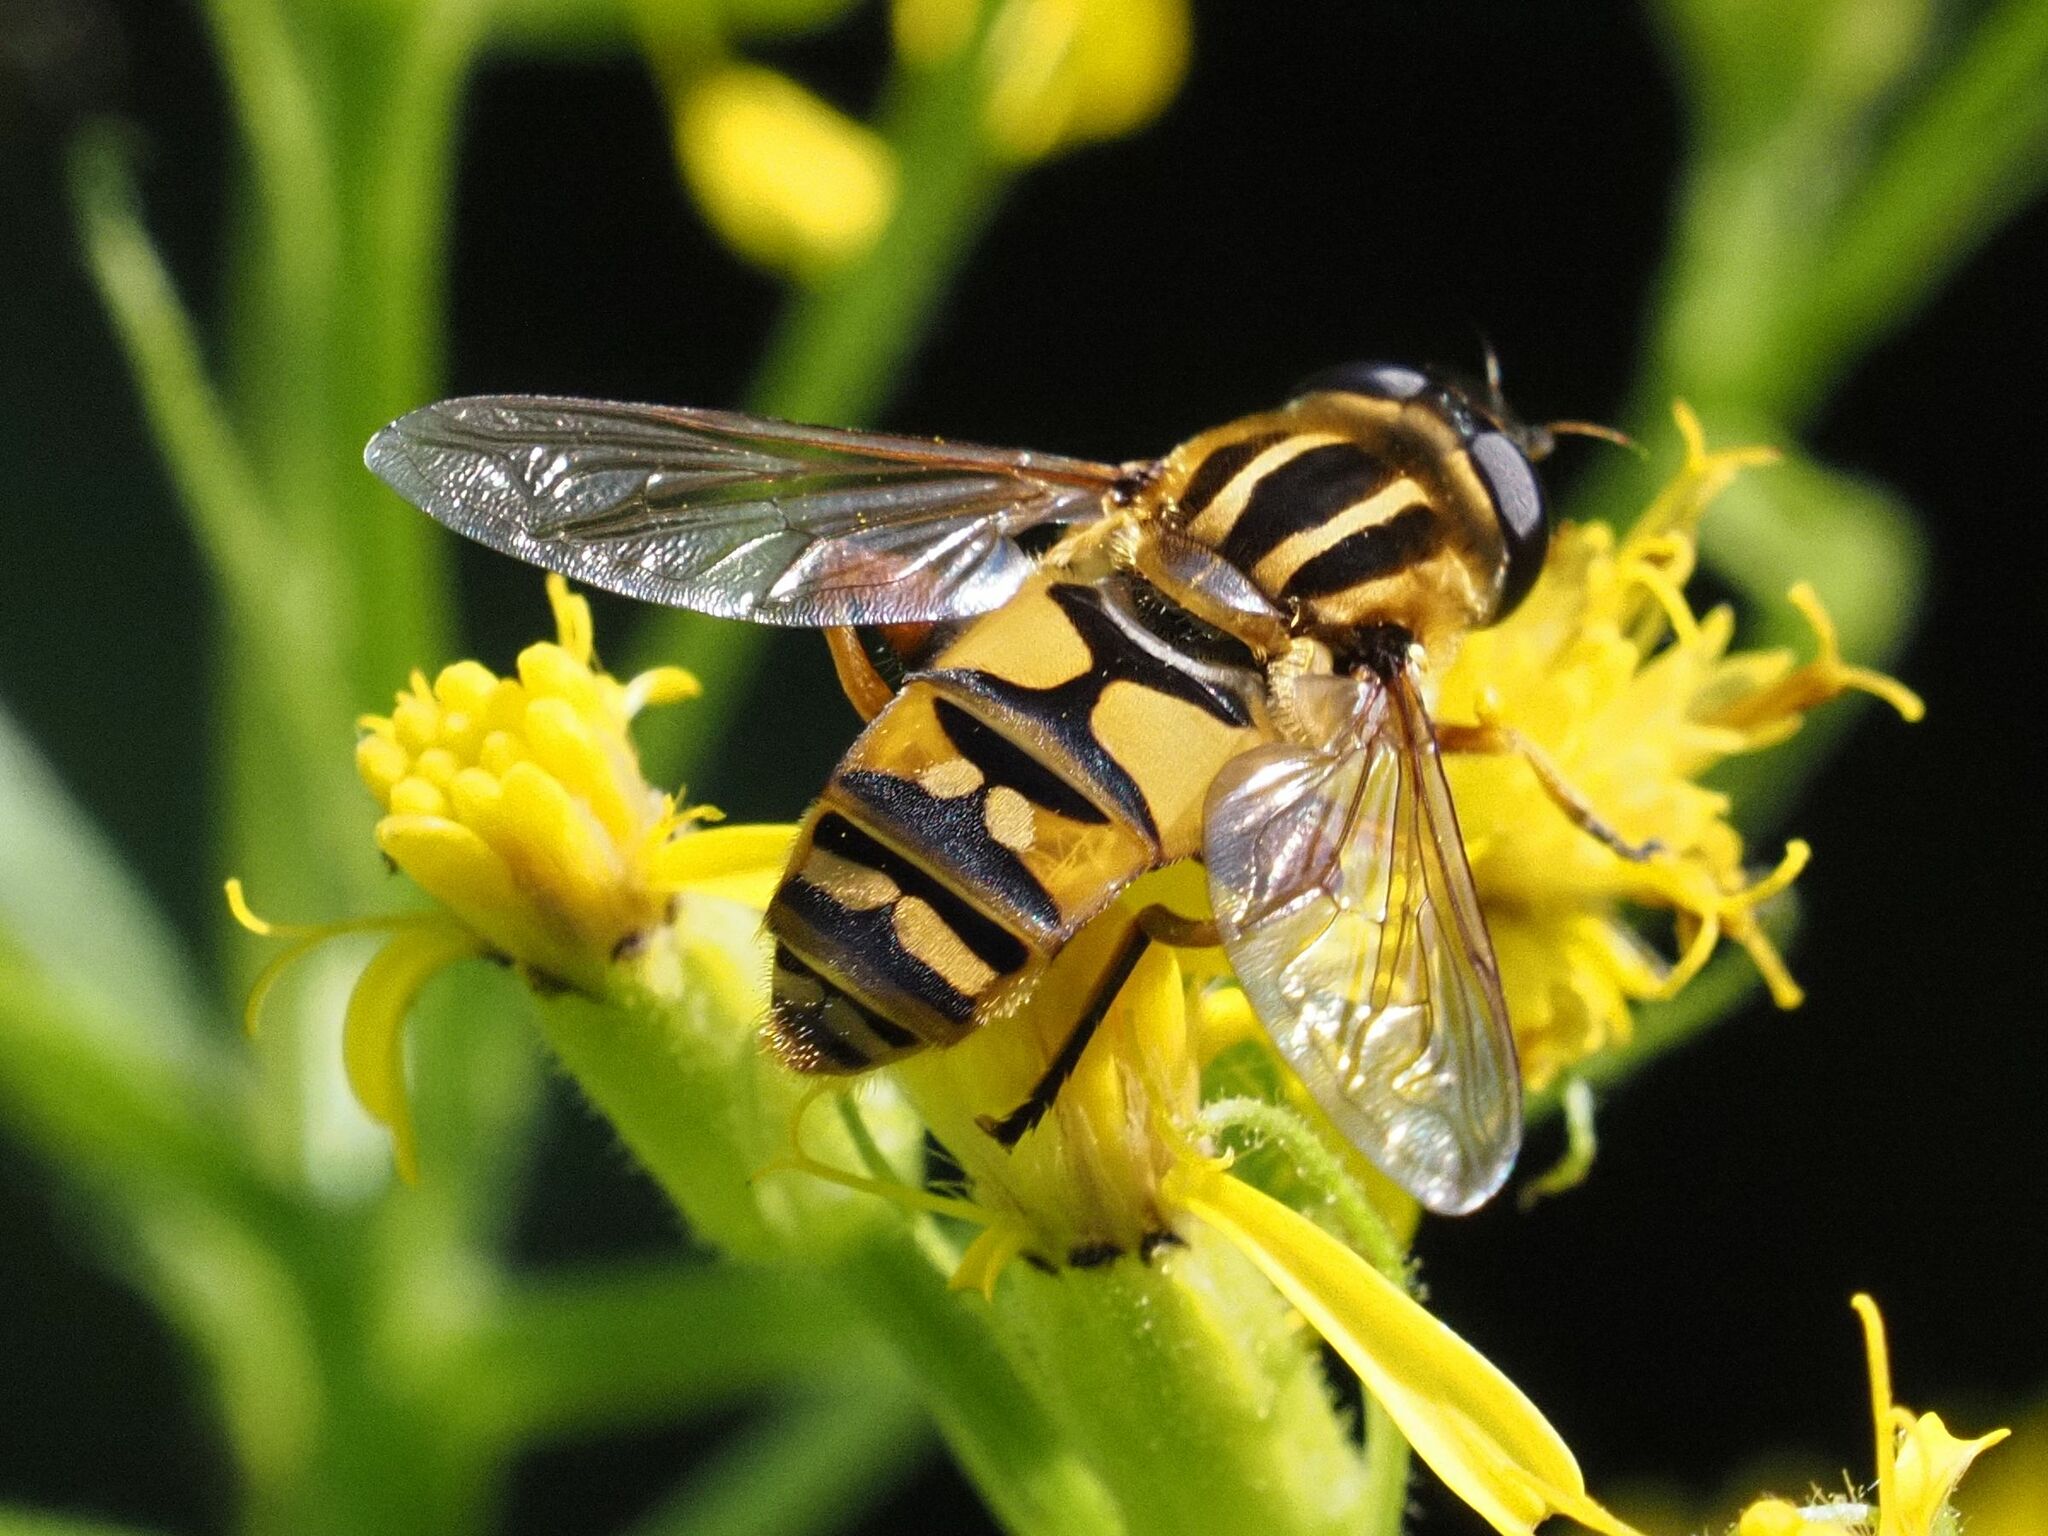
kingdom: Animalia
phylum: Arthropoda
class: Insecta
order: Diptera
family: Syrphidae
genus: Helophilus
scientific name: Helophilus pendulus
